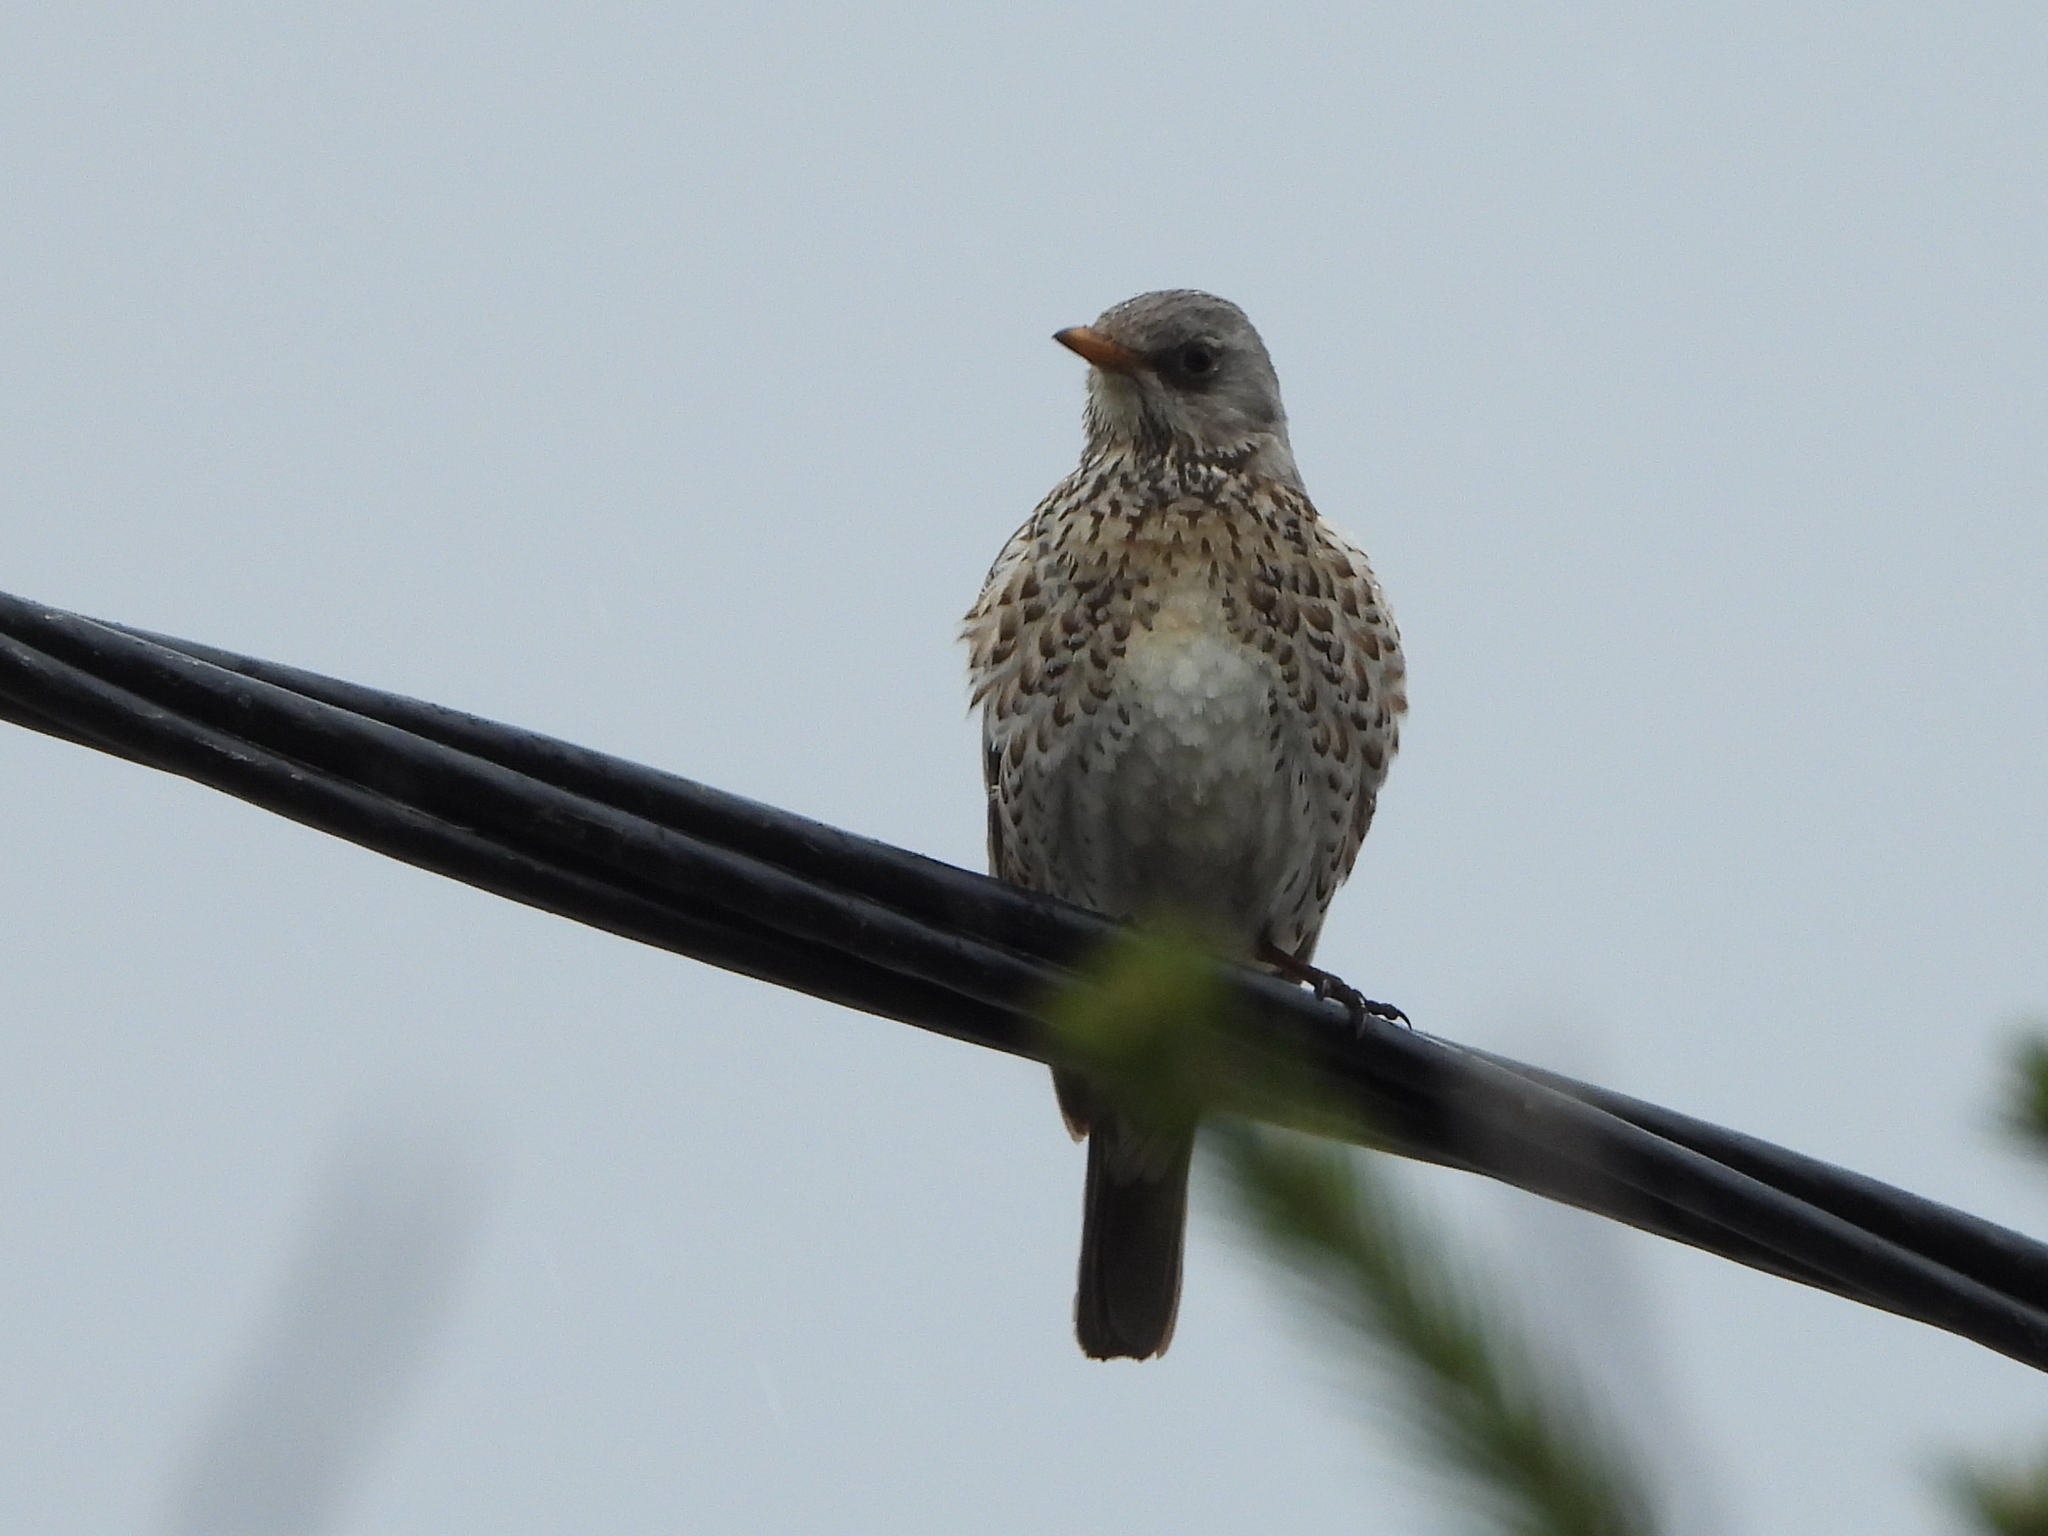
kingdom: Animalia
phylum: Chordata
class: Aves
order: Passeriformes
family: Turdidae
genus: Turdus
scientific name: Turdus pilaris
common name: Fieldfare
